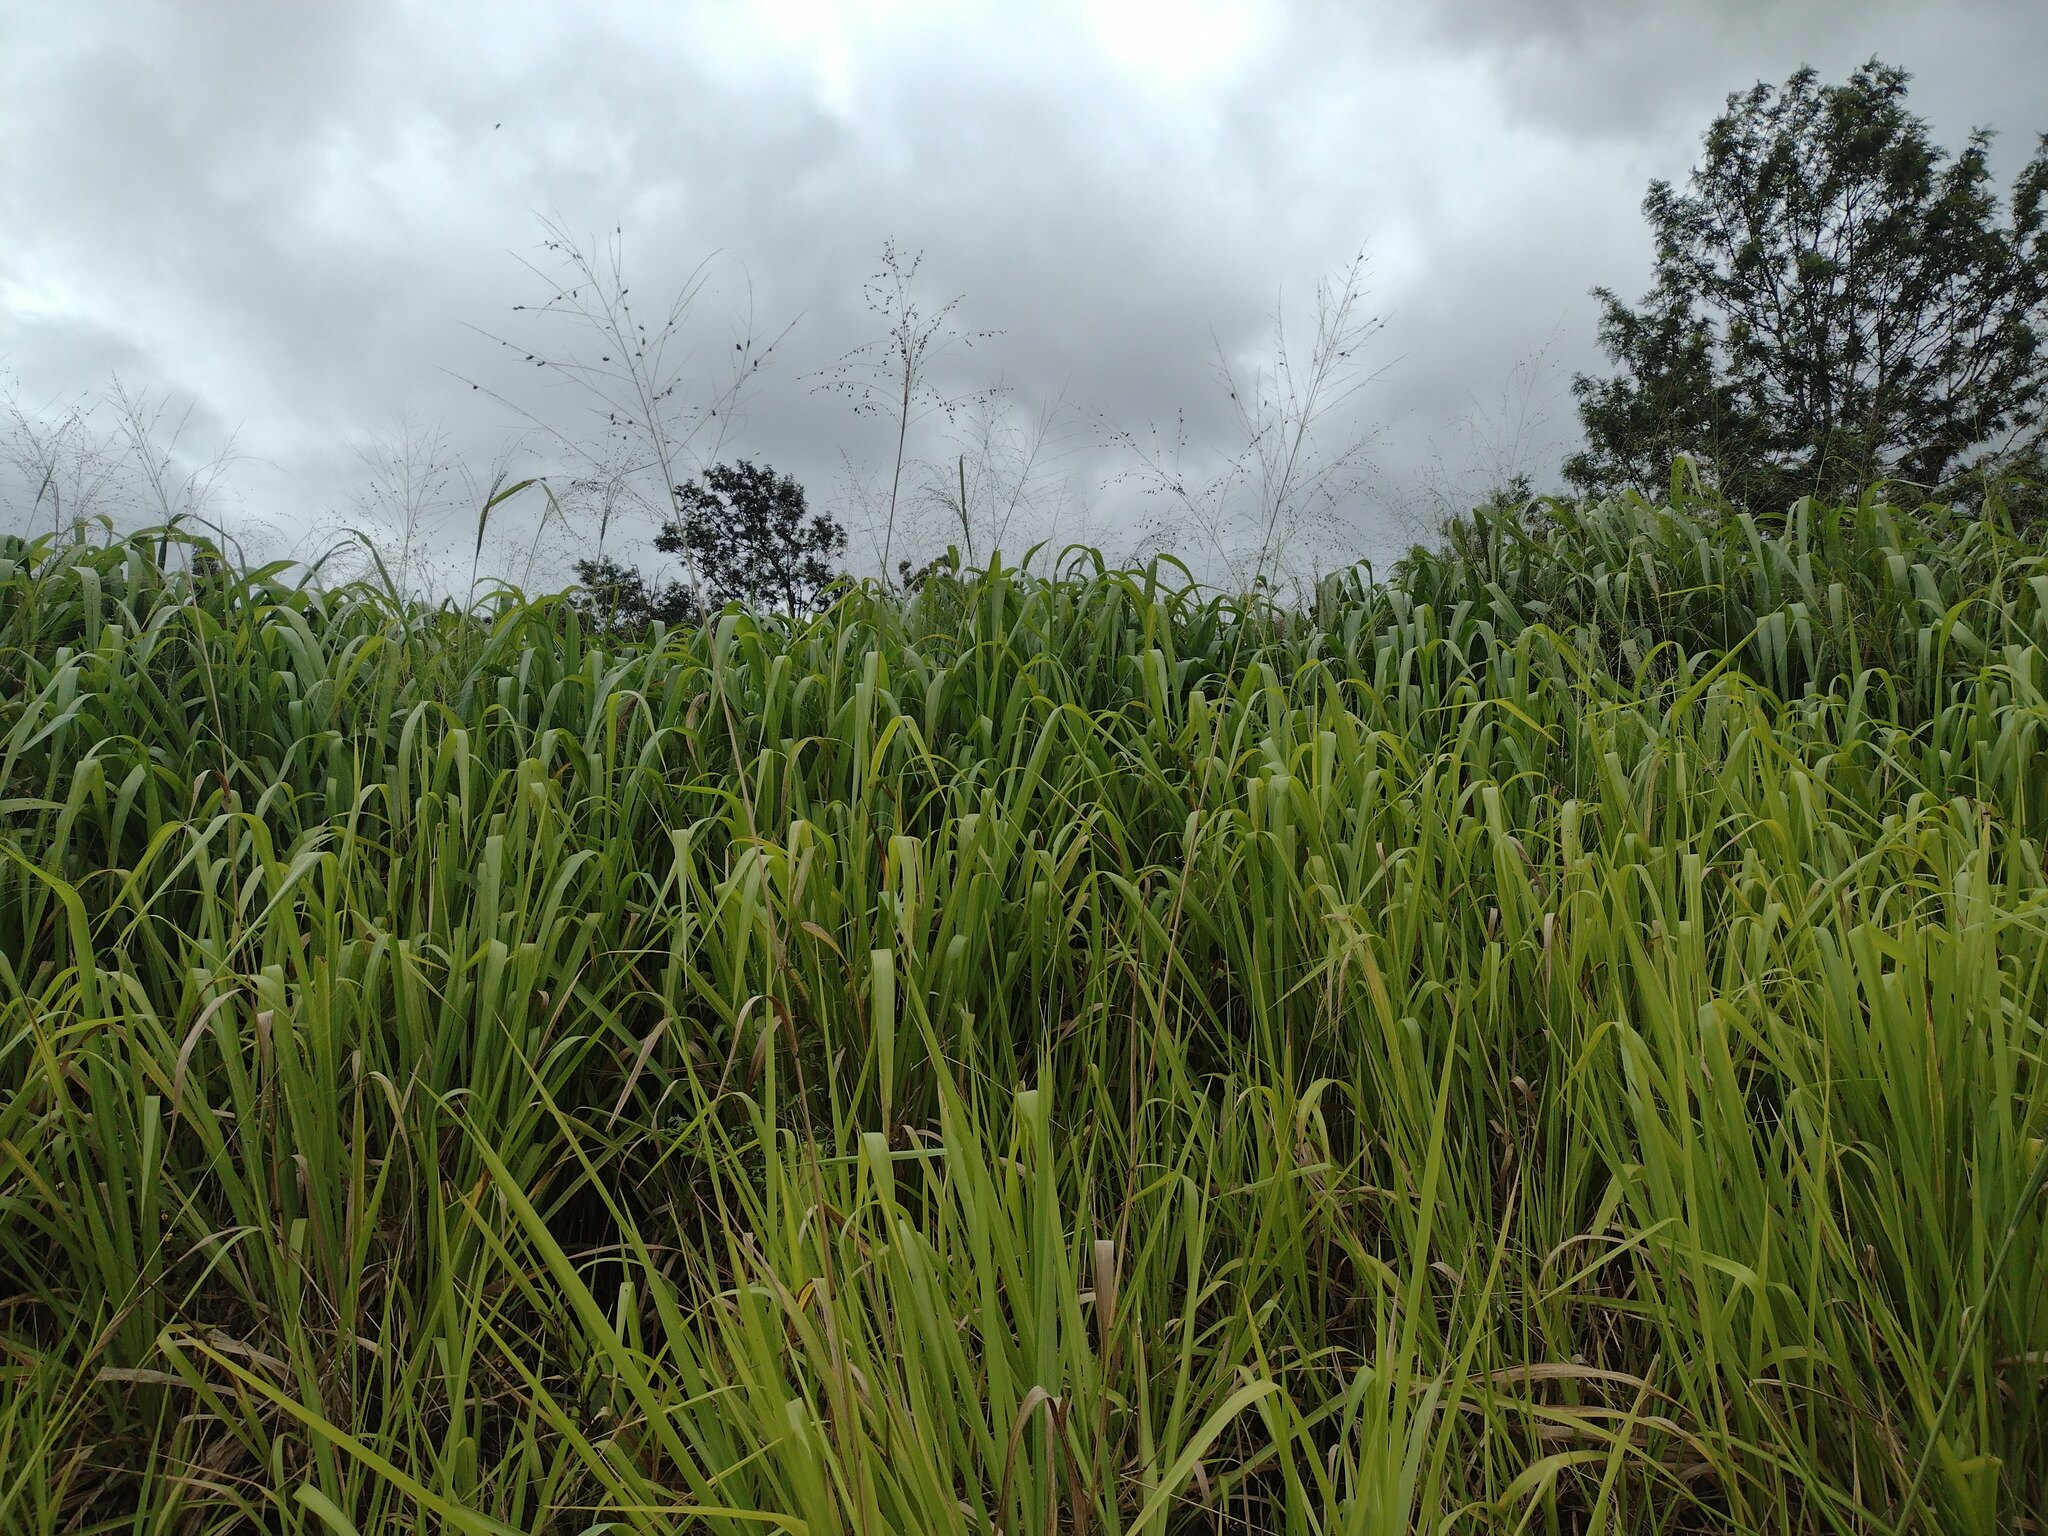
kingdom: Plantae
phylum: Tracheophyta
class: Liliopsida
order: Poales
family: Poaceae
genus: Megathyrsus
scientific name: Megathyrsus maximus
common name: Guineagrass
